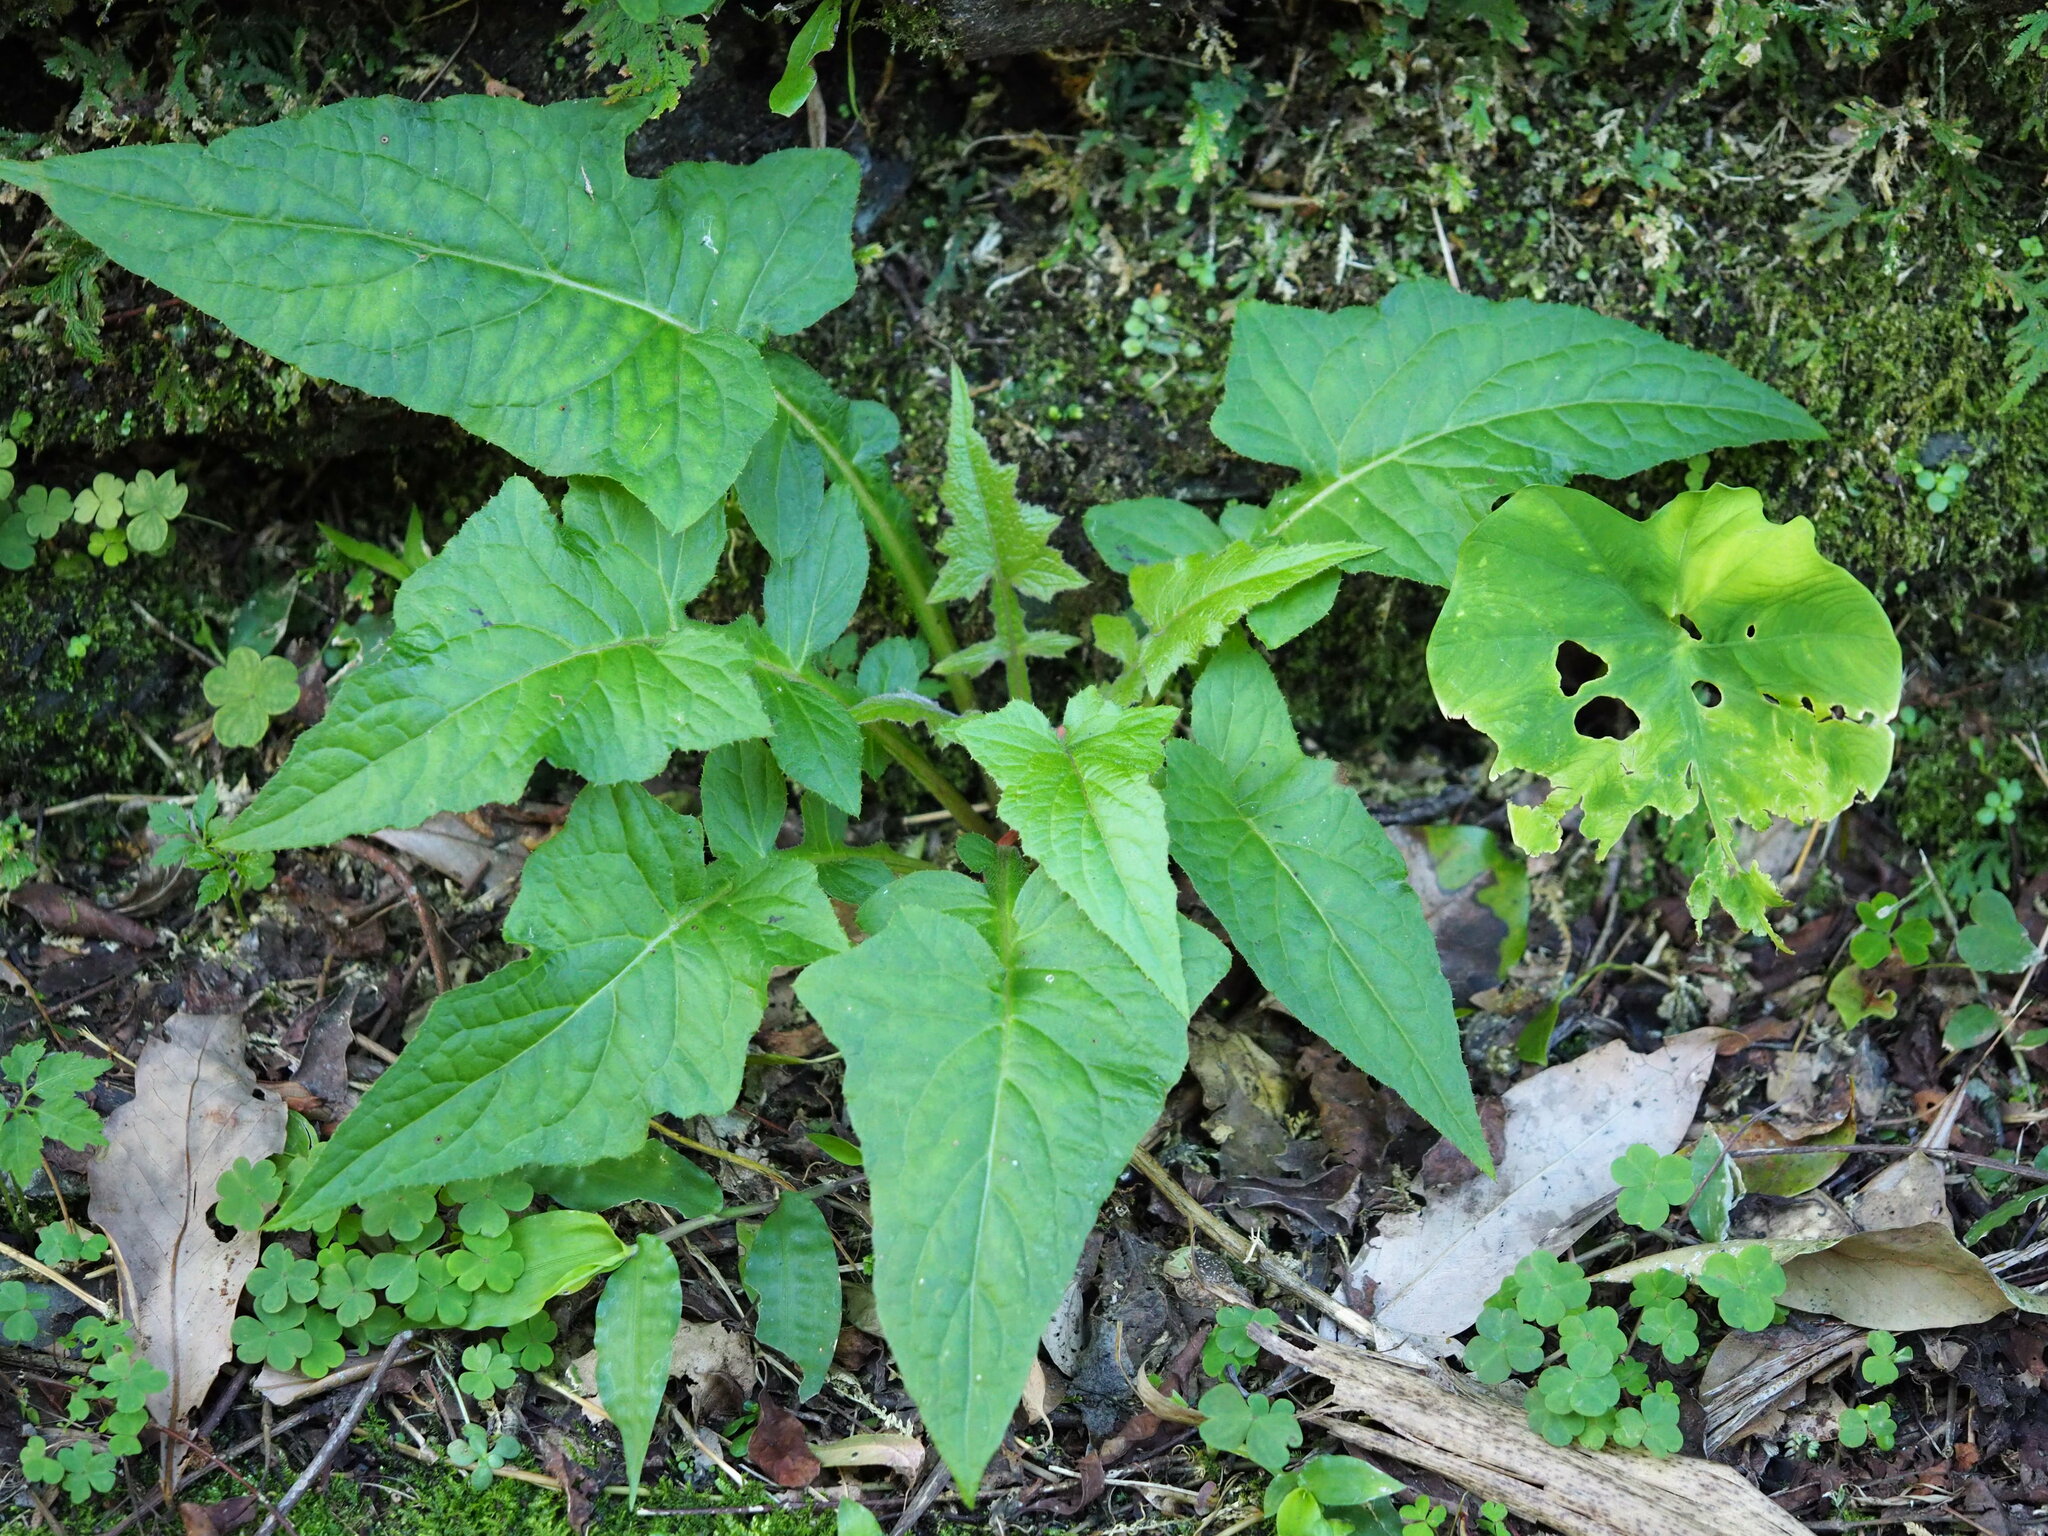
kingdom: Plantae
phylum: Tracheophyta
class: Magnoliopsida
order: Asterales
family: Asteraceae
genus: Paraprenanthes
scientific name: Paraprenanthes sororia
